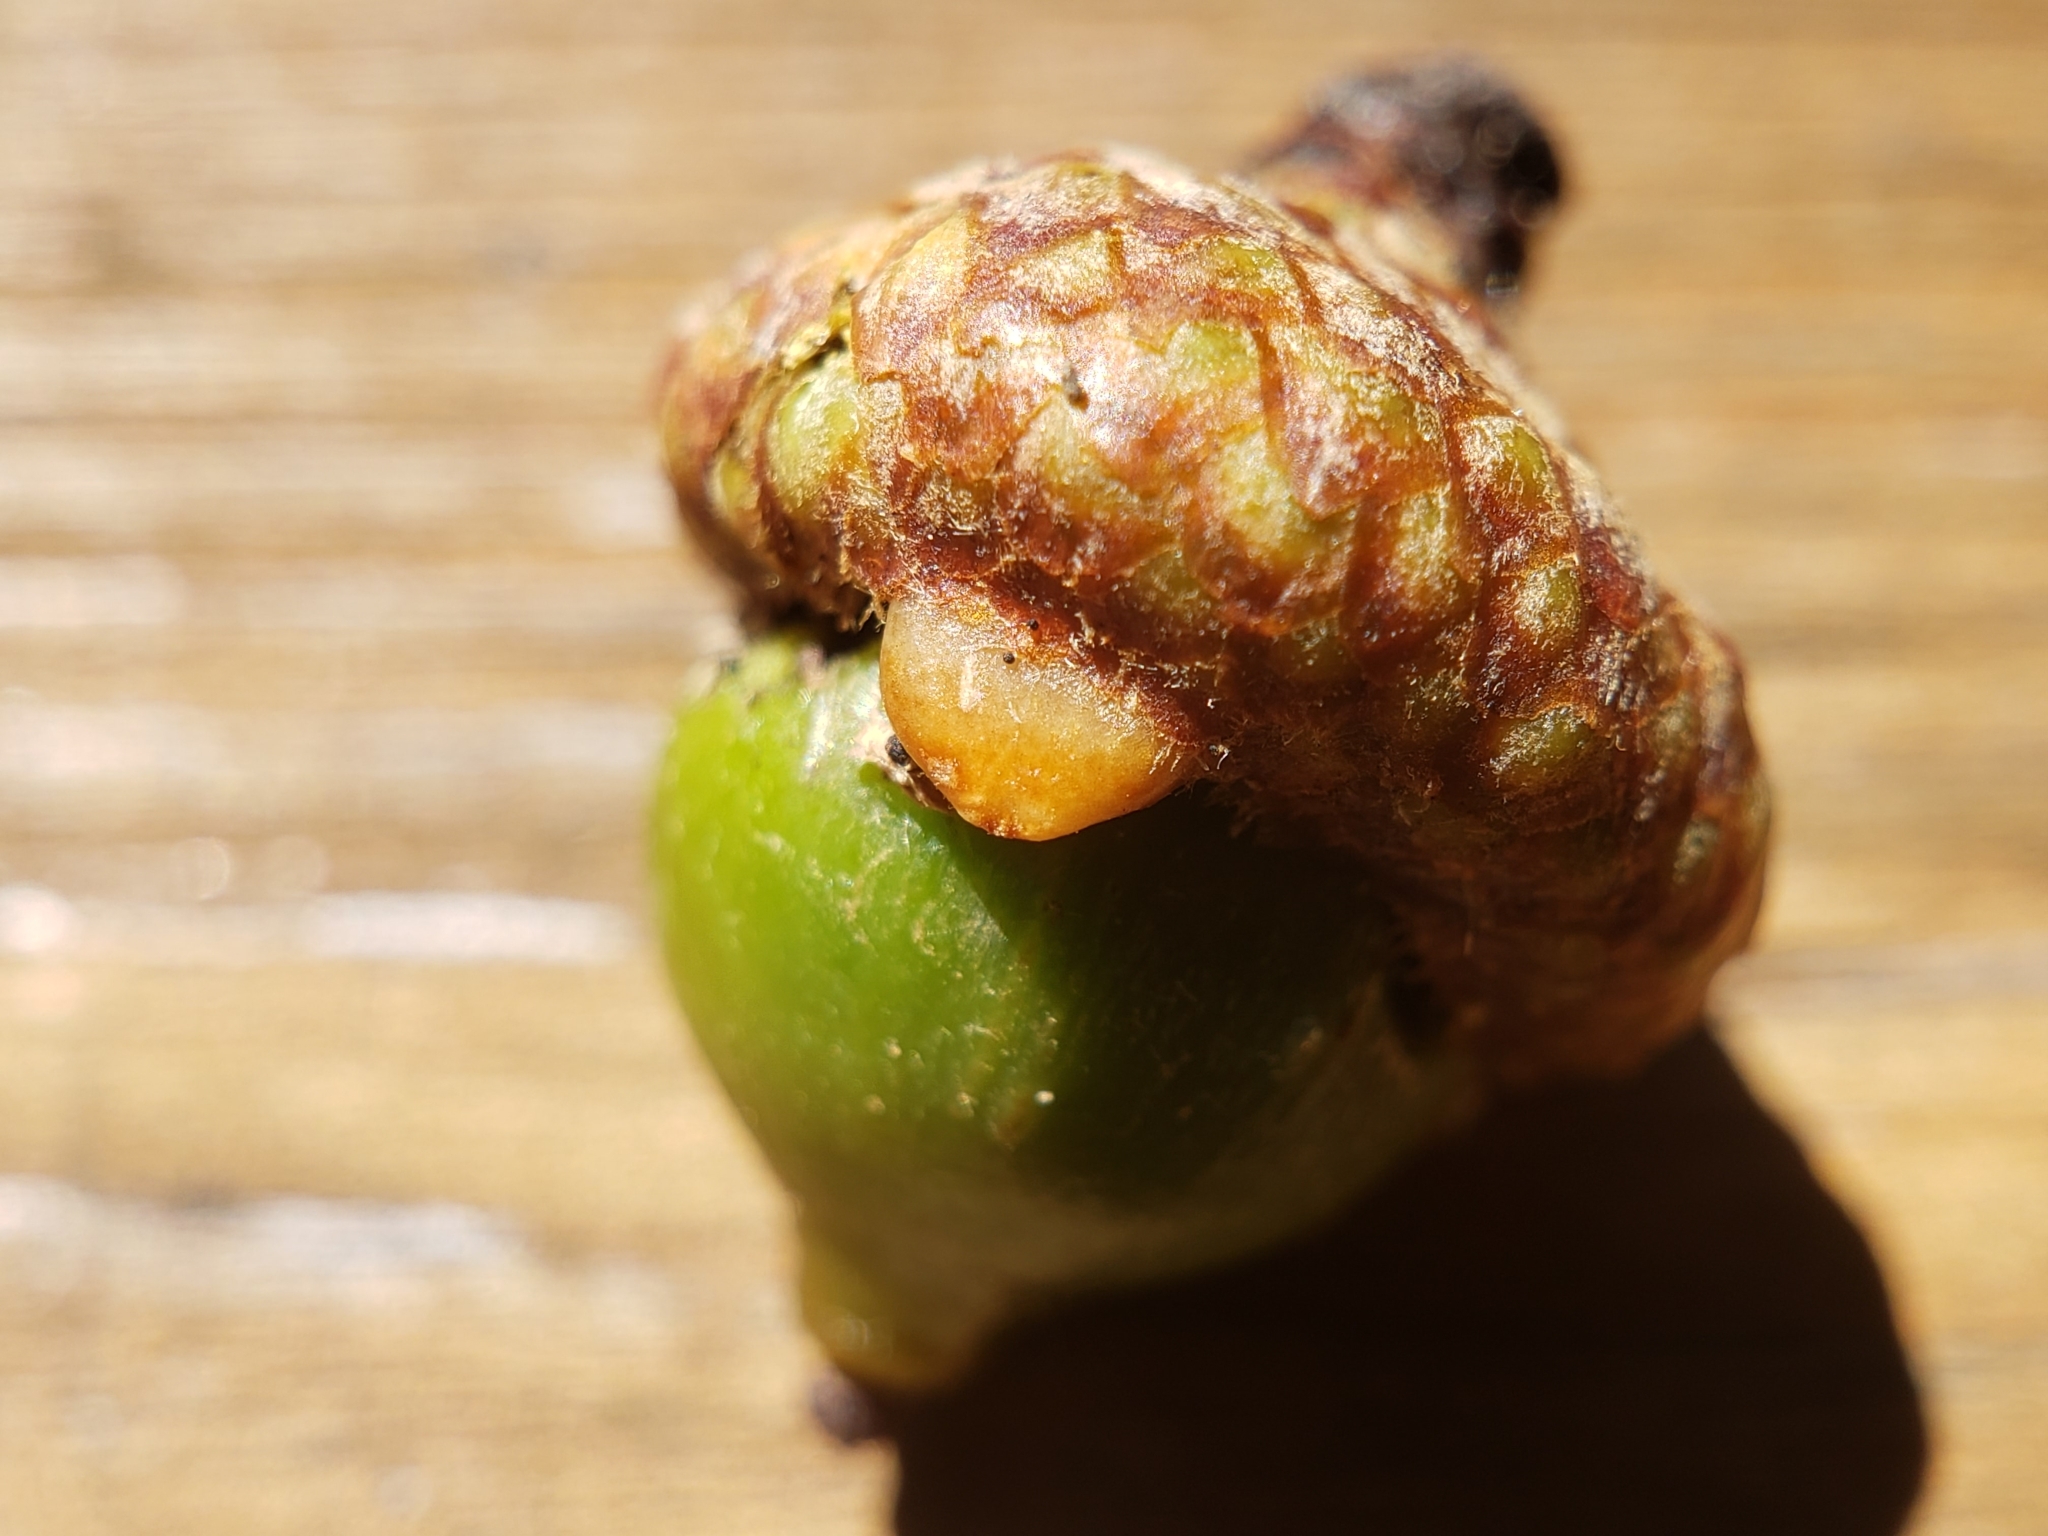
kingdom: Animalia
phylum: Arthropoda
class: Insecta
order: Hymenoptera
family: Cynipidae
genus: Callirhytis
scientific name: Callirhytis
